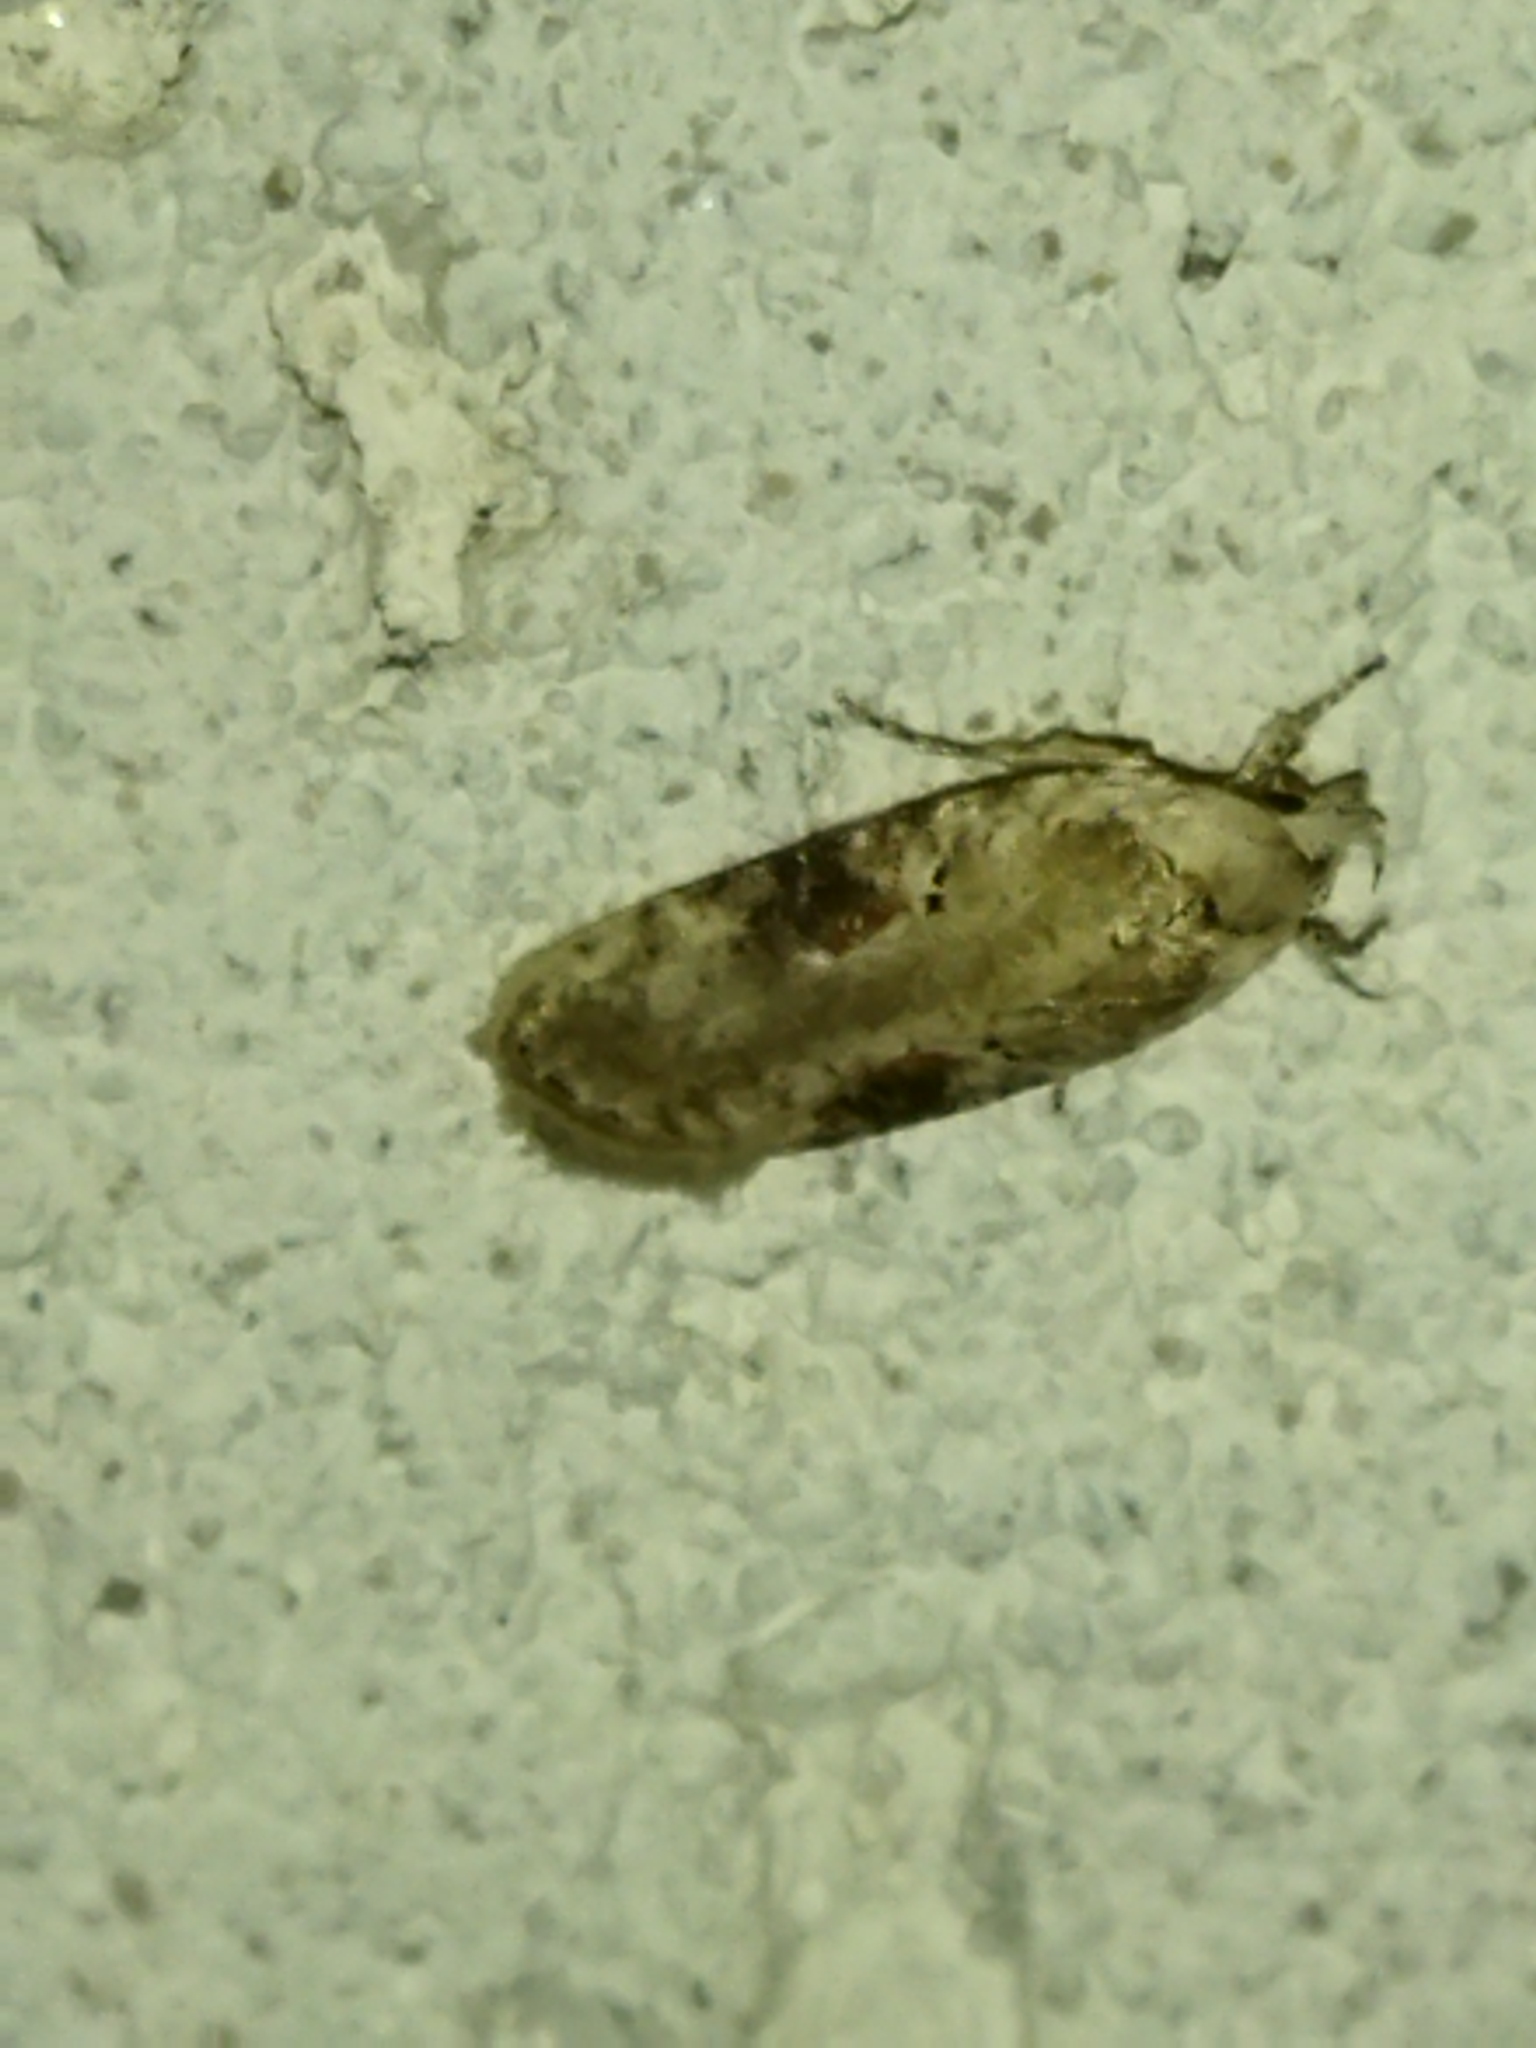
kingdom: Animalia
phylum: Arthropoda
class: Insecta
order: Lepidoptera
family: Depressariidae
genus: Agonopterix
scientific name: Agonopterix alstroemeriana
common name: Moth
